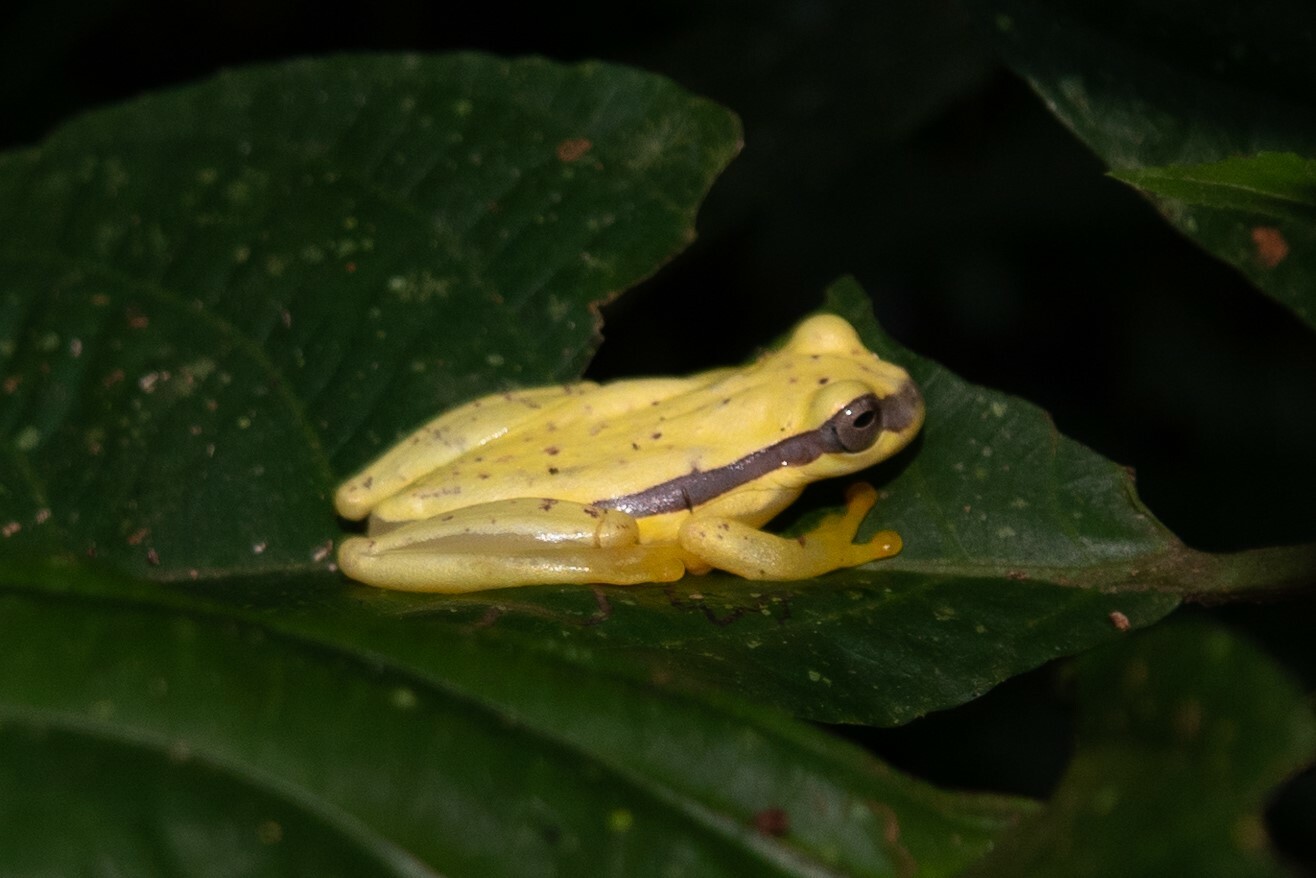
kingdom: Animalia
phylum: Chordata
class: Amphibia
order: Anura
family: Hylidae
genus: Dendropsophus
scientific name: Dendropsophus rhodopeplus
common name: Red-skirted treefrog
